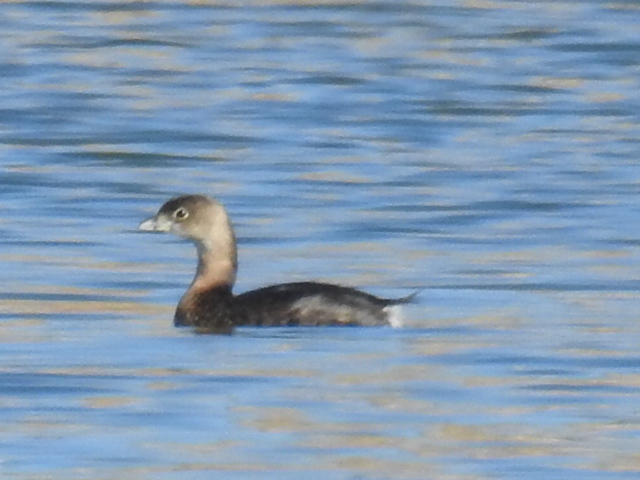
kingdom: Animalia
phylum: Chordata
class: Aves
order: Podicipediformes
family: Podicipedidae
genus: Podilymbus
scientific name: Podilymbus podiceps
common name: Pied-billed grebe
